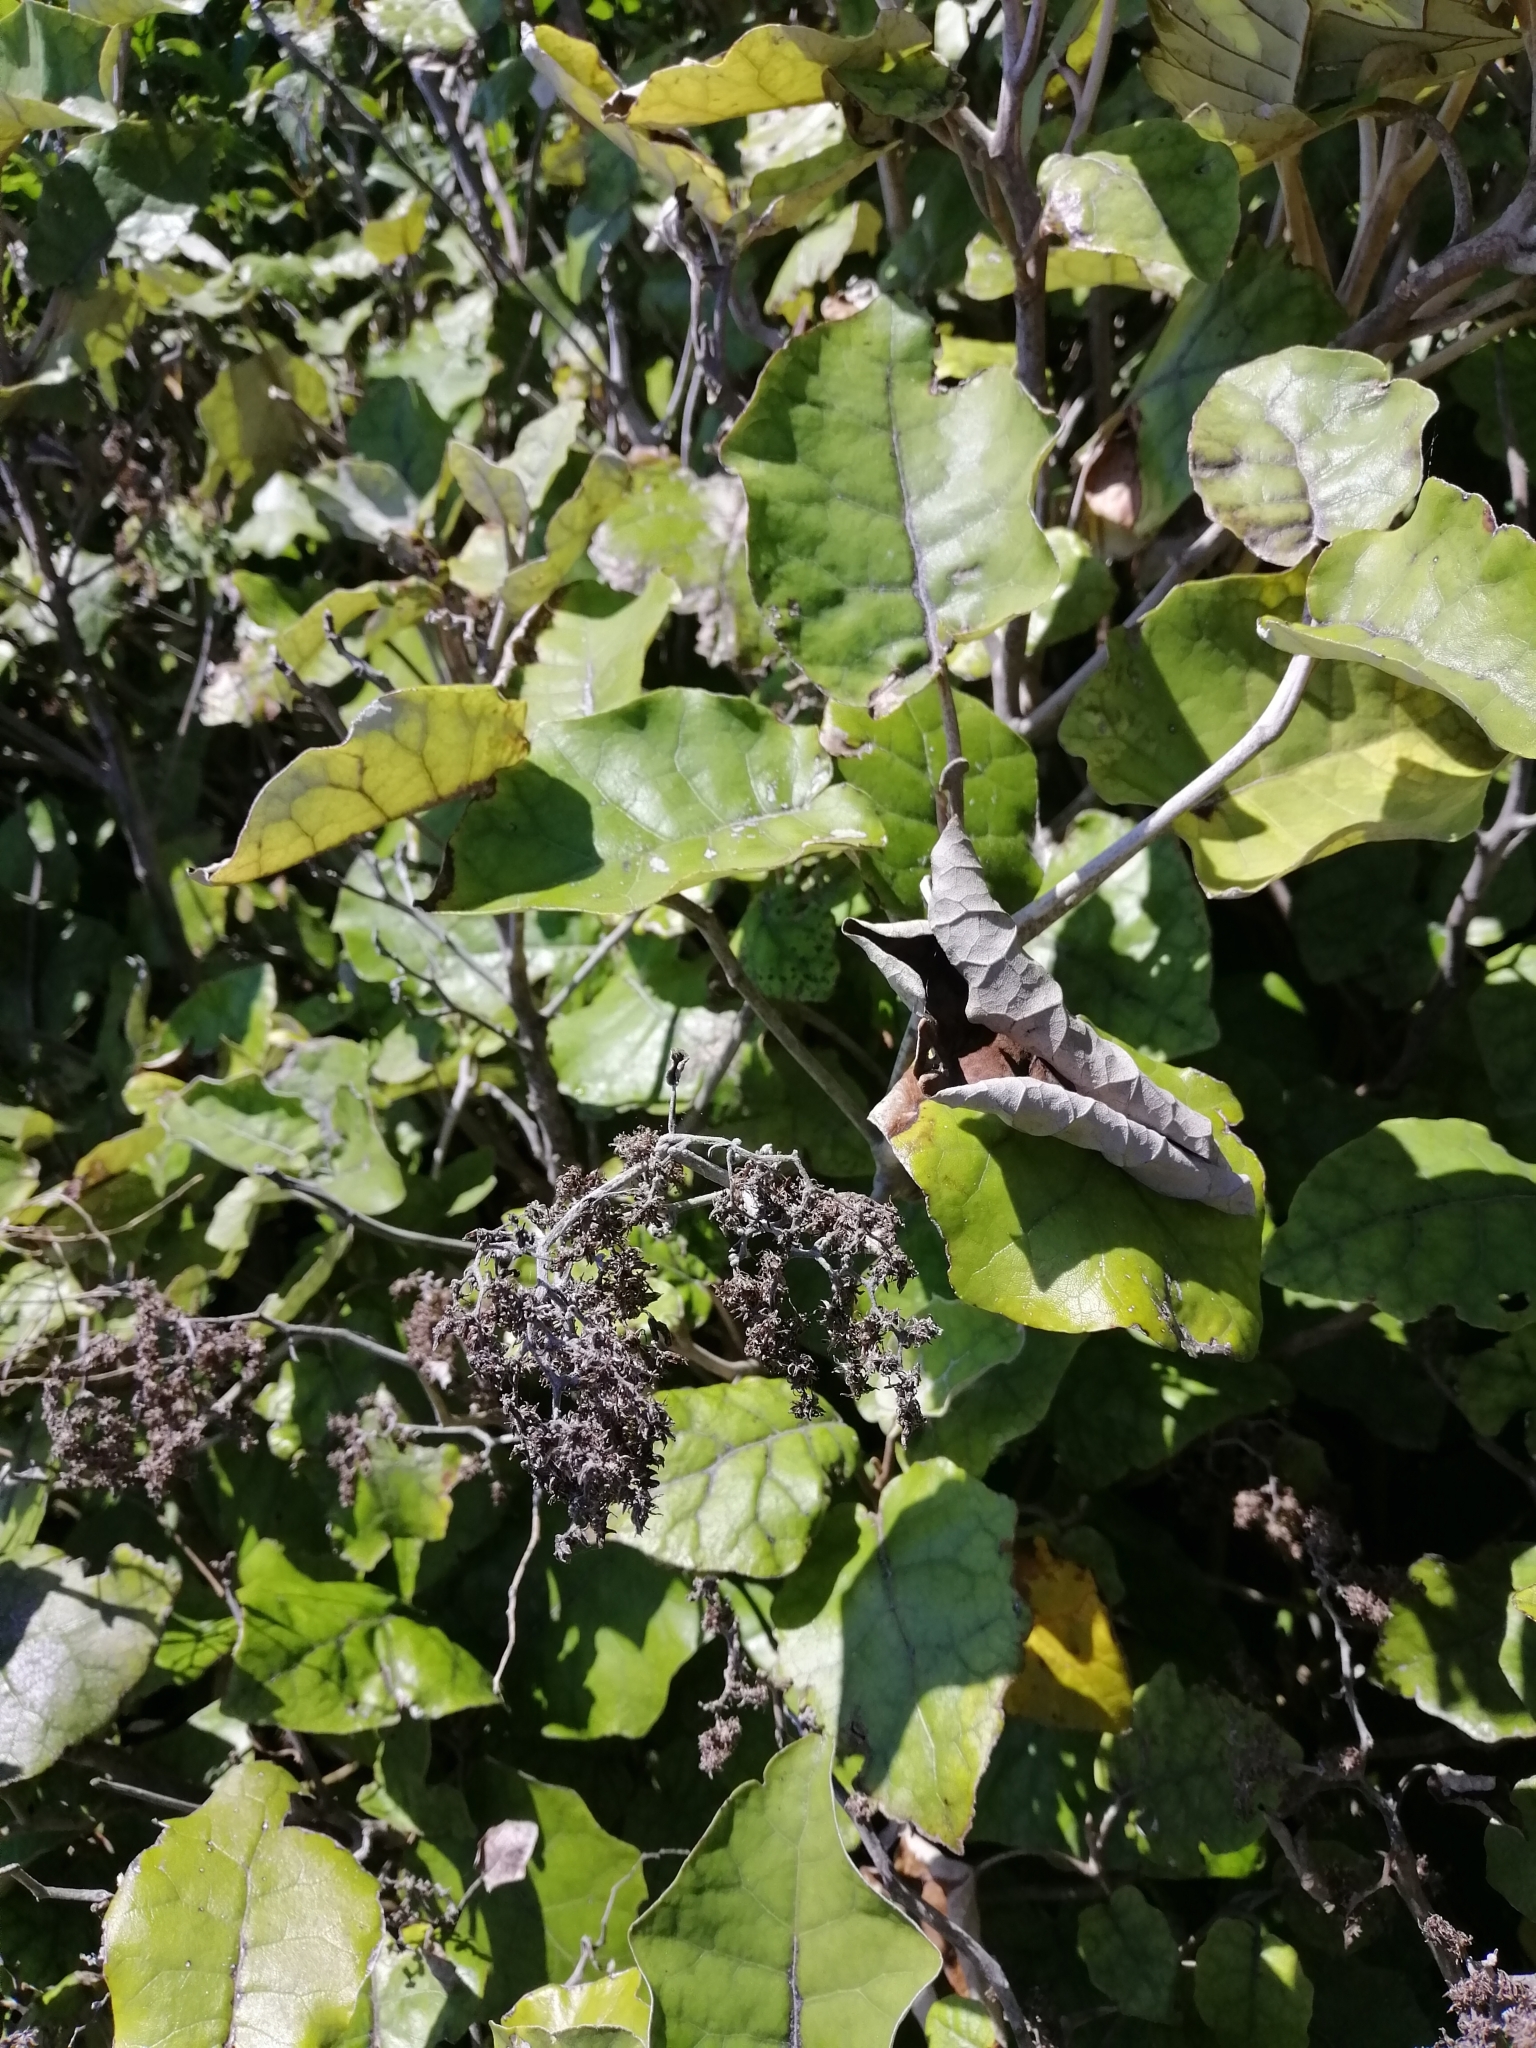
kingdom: Plantae
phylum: Tracheophyta
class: Magnoliopsida
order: Asterales
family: Asteraceae
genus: Brachyglottis
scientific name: Brachyglottis repanda
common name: Hedge ragwort
